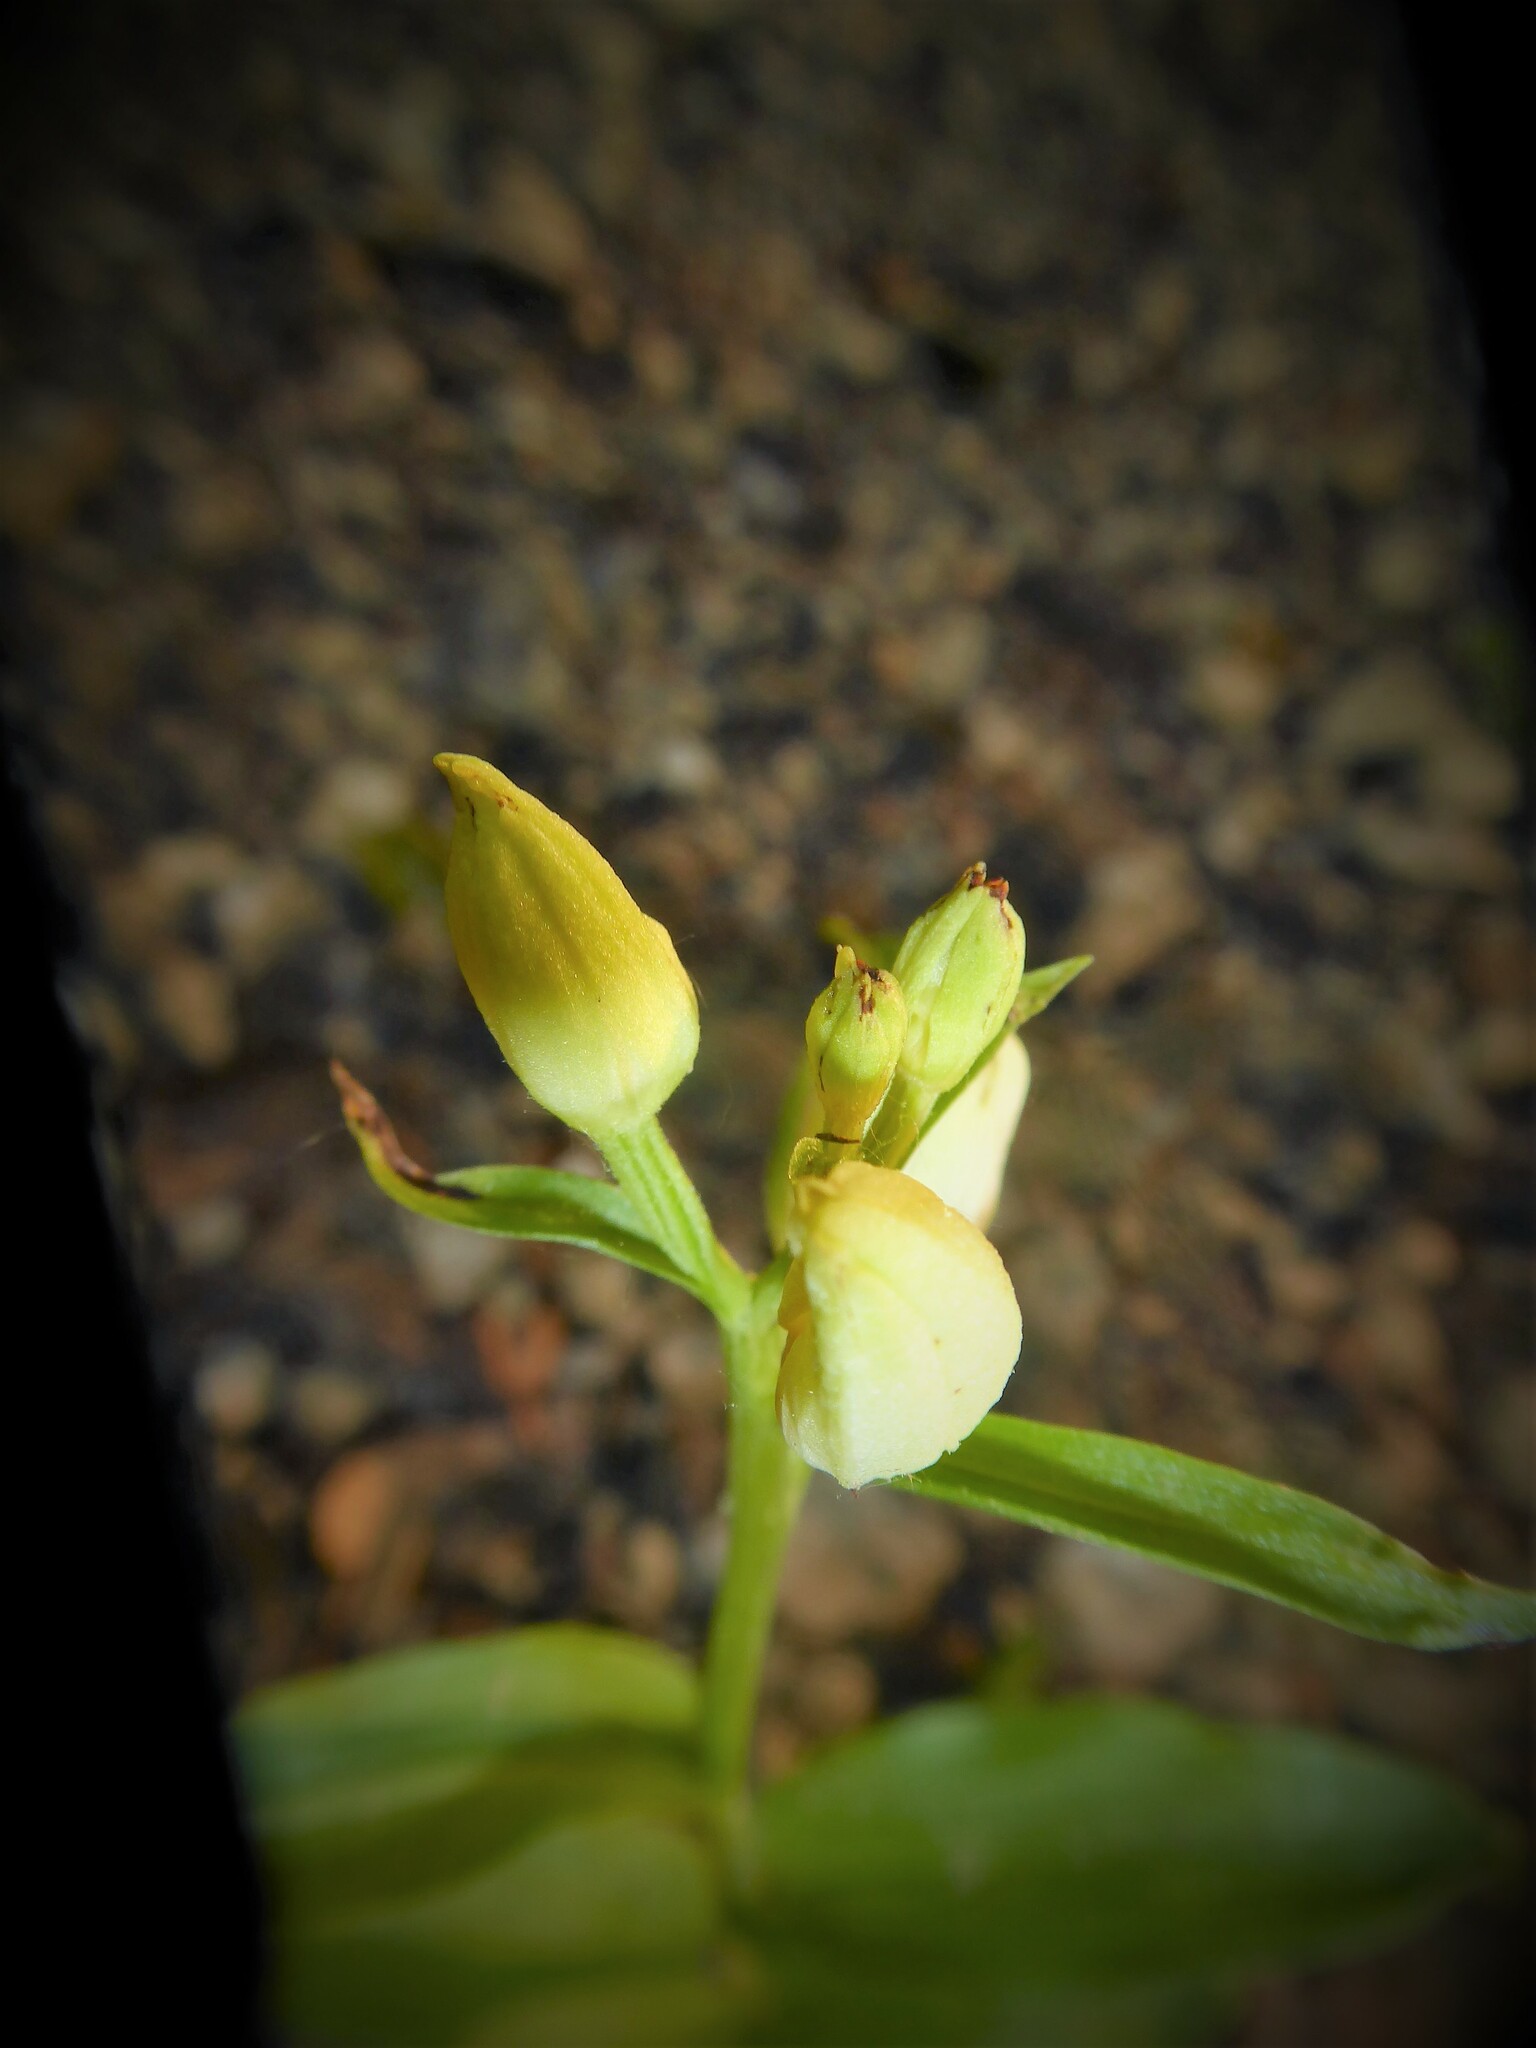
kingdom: Plantae
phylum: Tracheophyta
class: Liliopsida
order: Asparagales
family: Orchidaceae
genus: Cephalanthera
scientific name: Cephalanthera damasonium
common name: White helleborine
